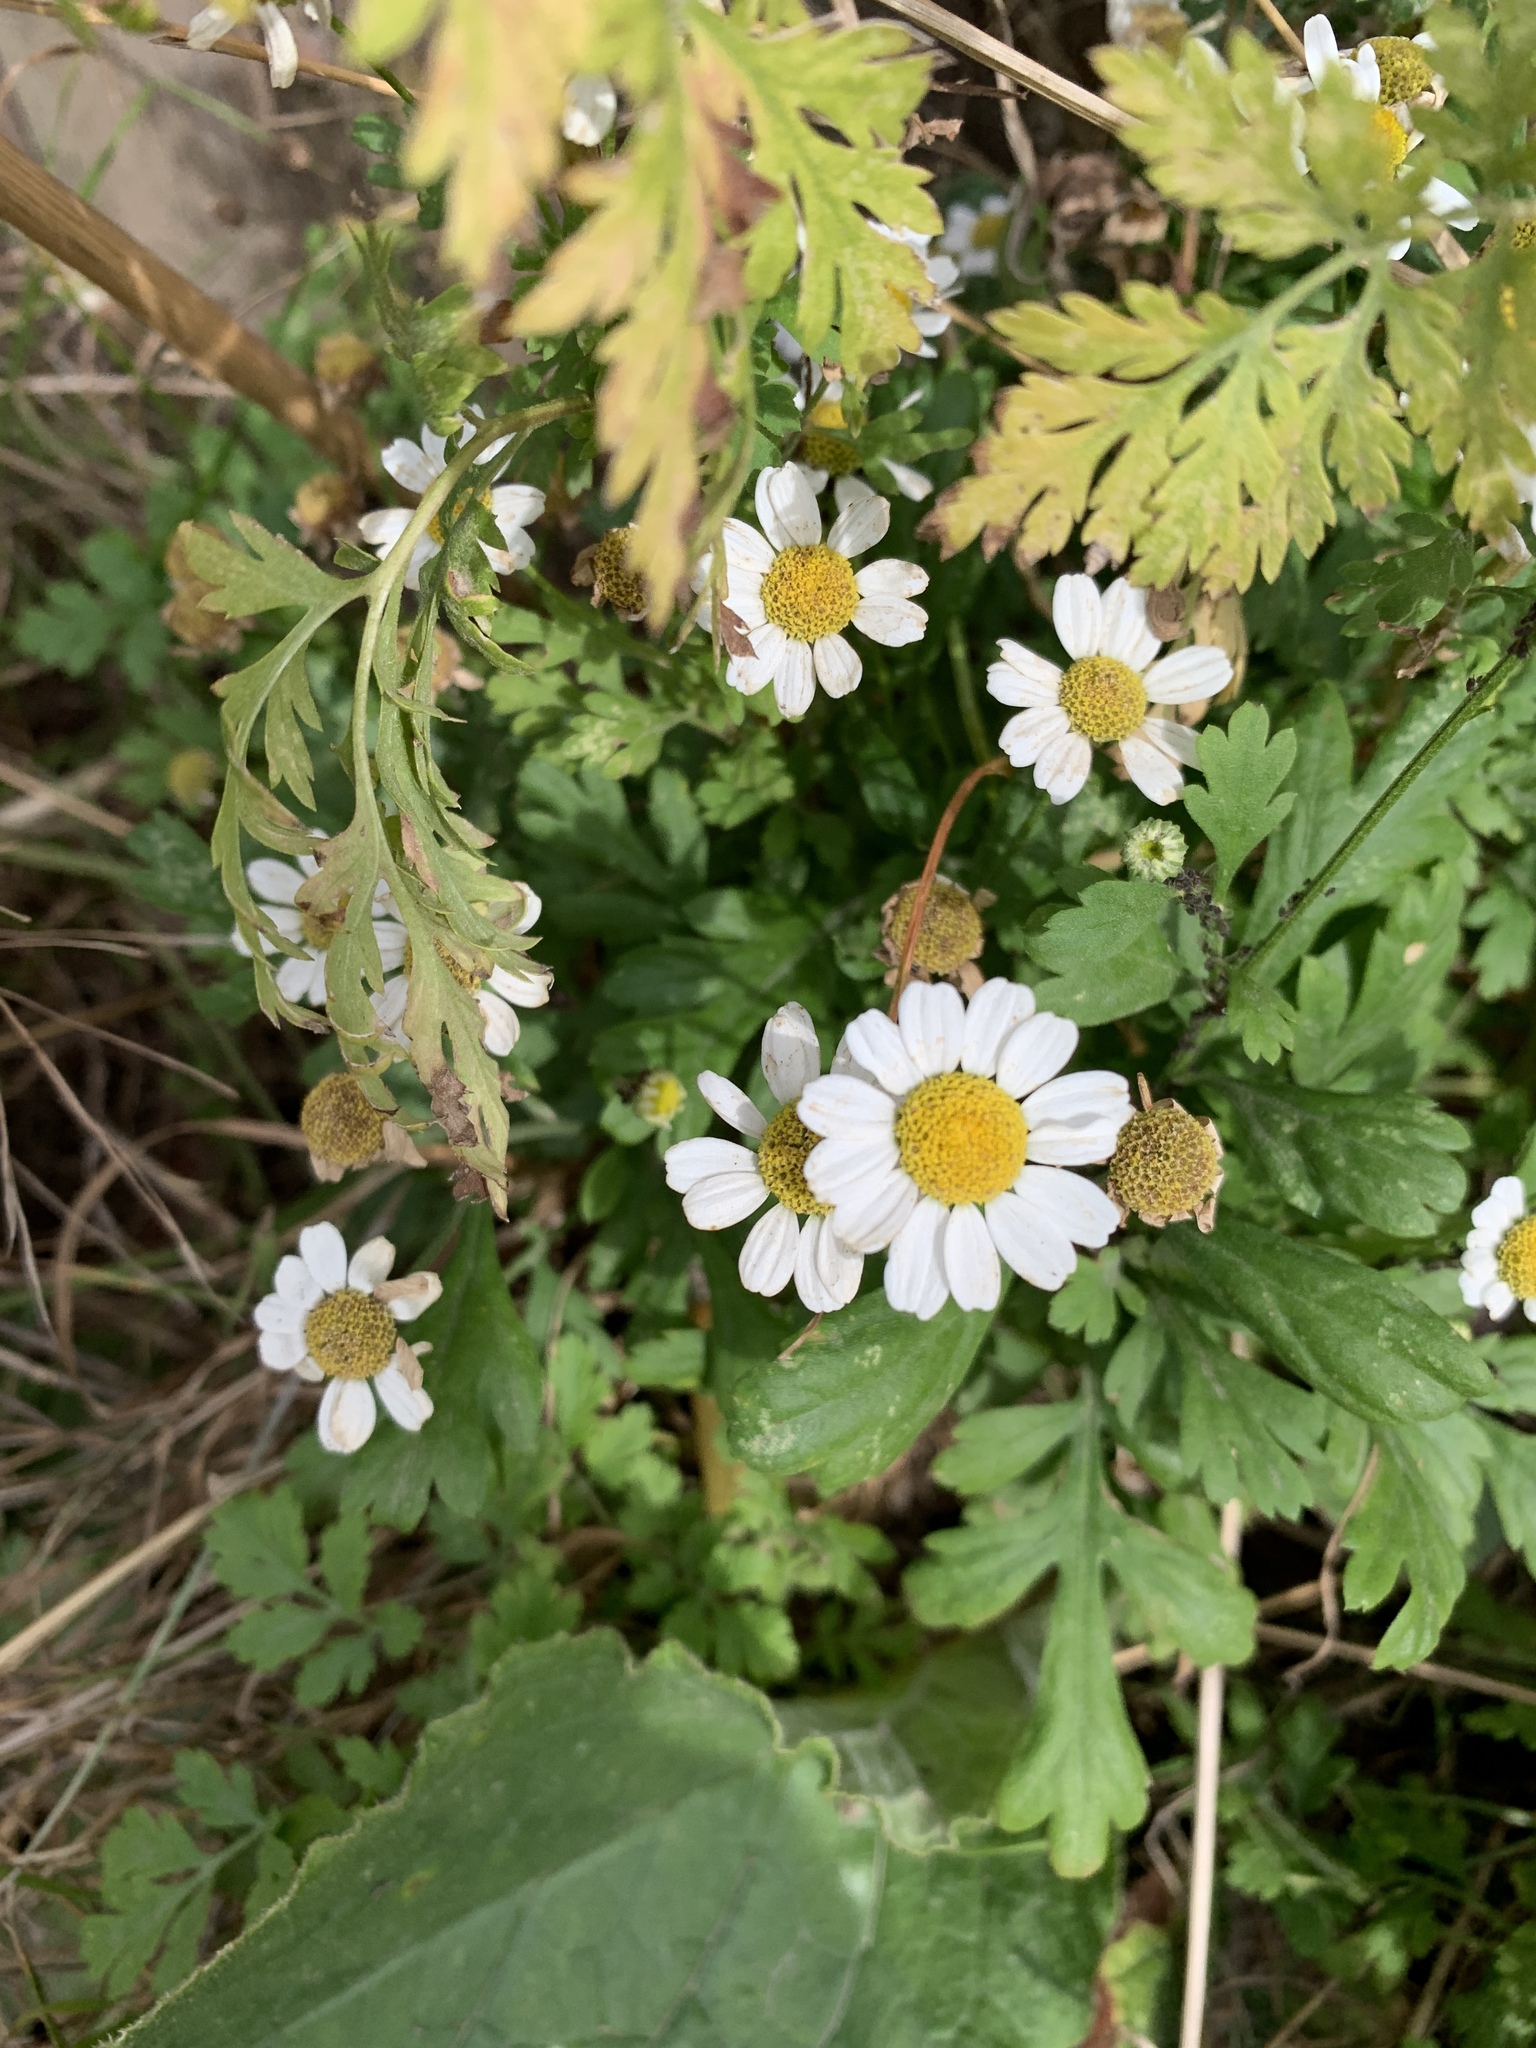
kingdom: Plantae
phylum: Tracheophyta
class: Magnoliopsida
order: Asterales
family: Asteraceae
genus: Tanacetum
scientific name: Tanacetum parthenium
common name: Feverfew
